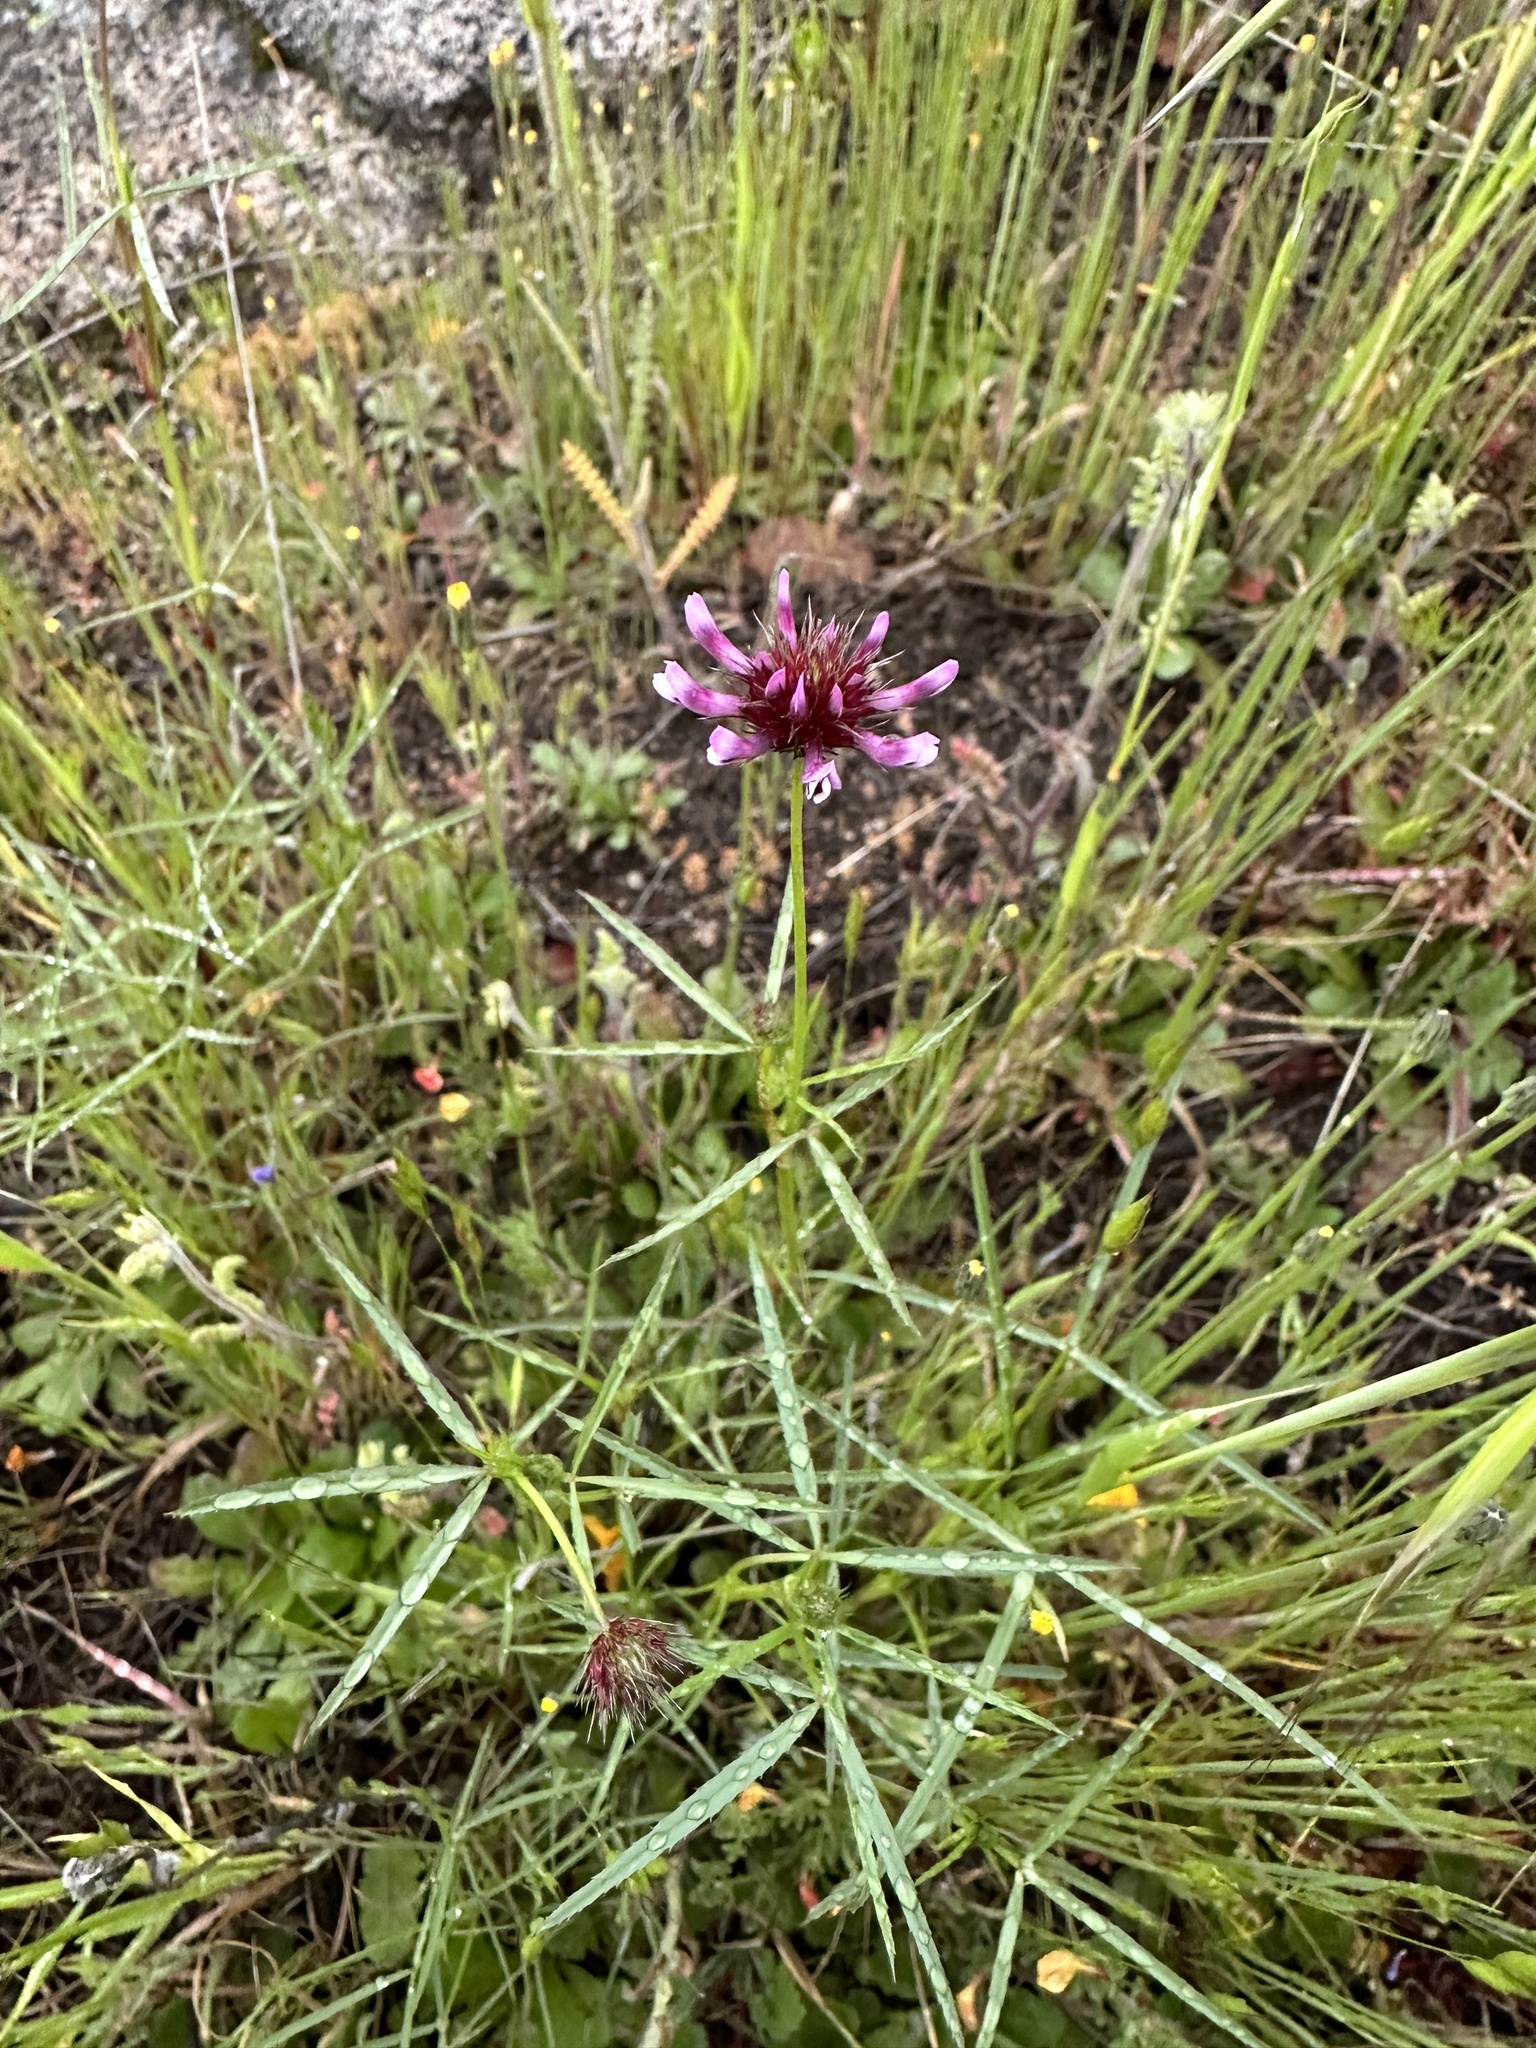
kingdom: Plantae
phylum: Tracheophyta
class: Magnoliopsida
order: Fabales
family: Fabaceae
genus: Trifolium
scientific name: Trifolium willdenovii
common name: Tomcat clover
